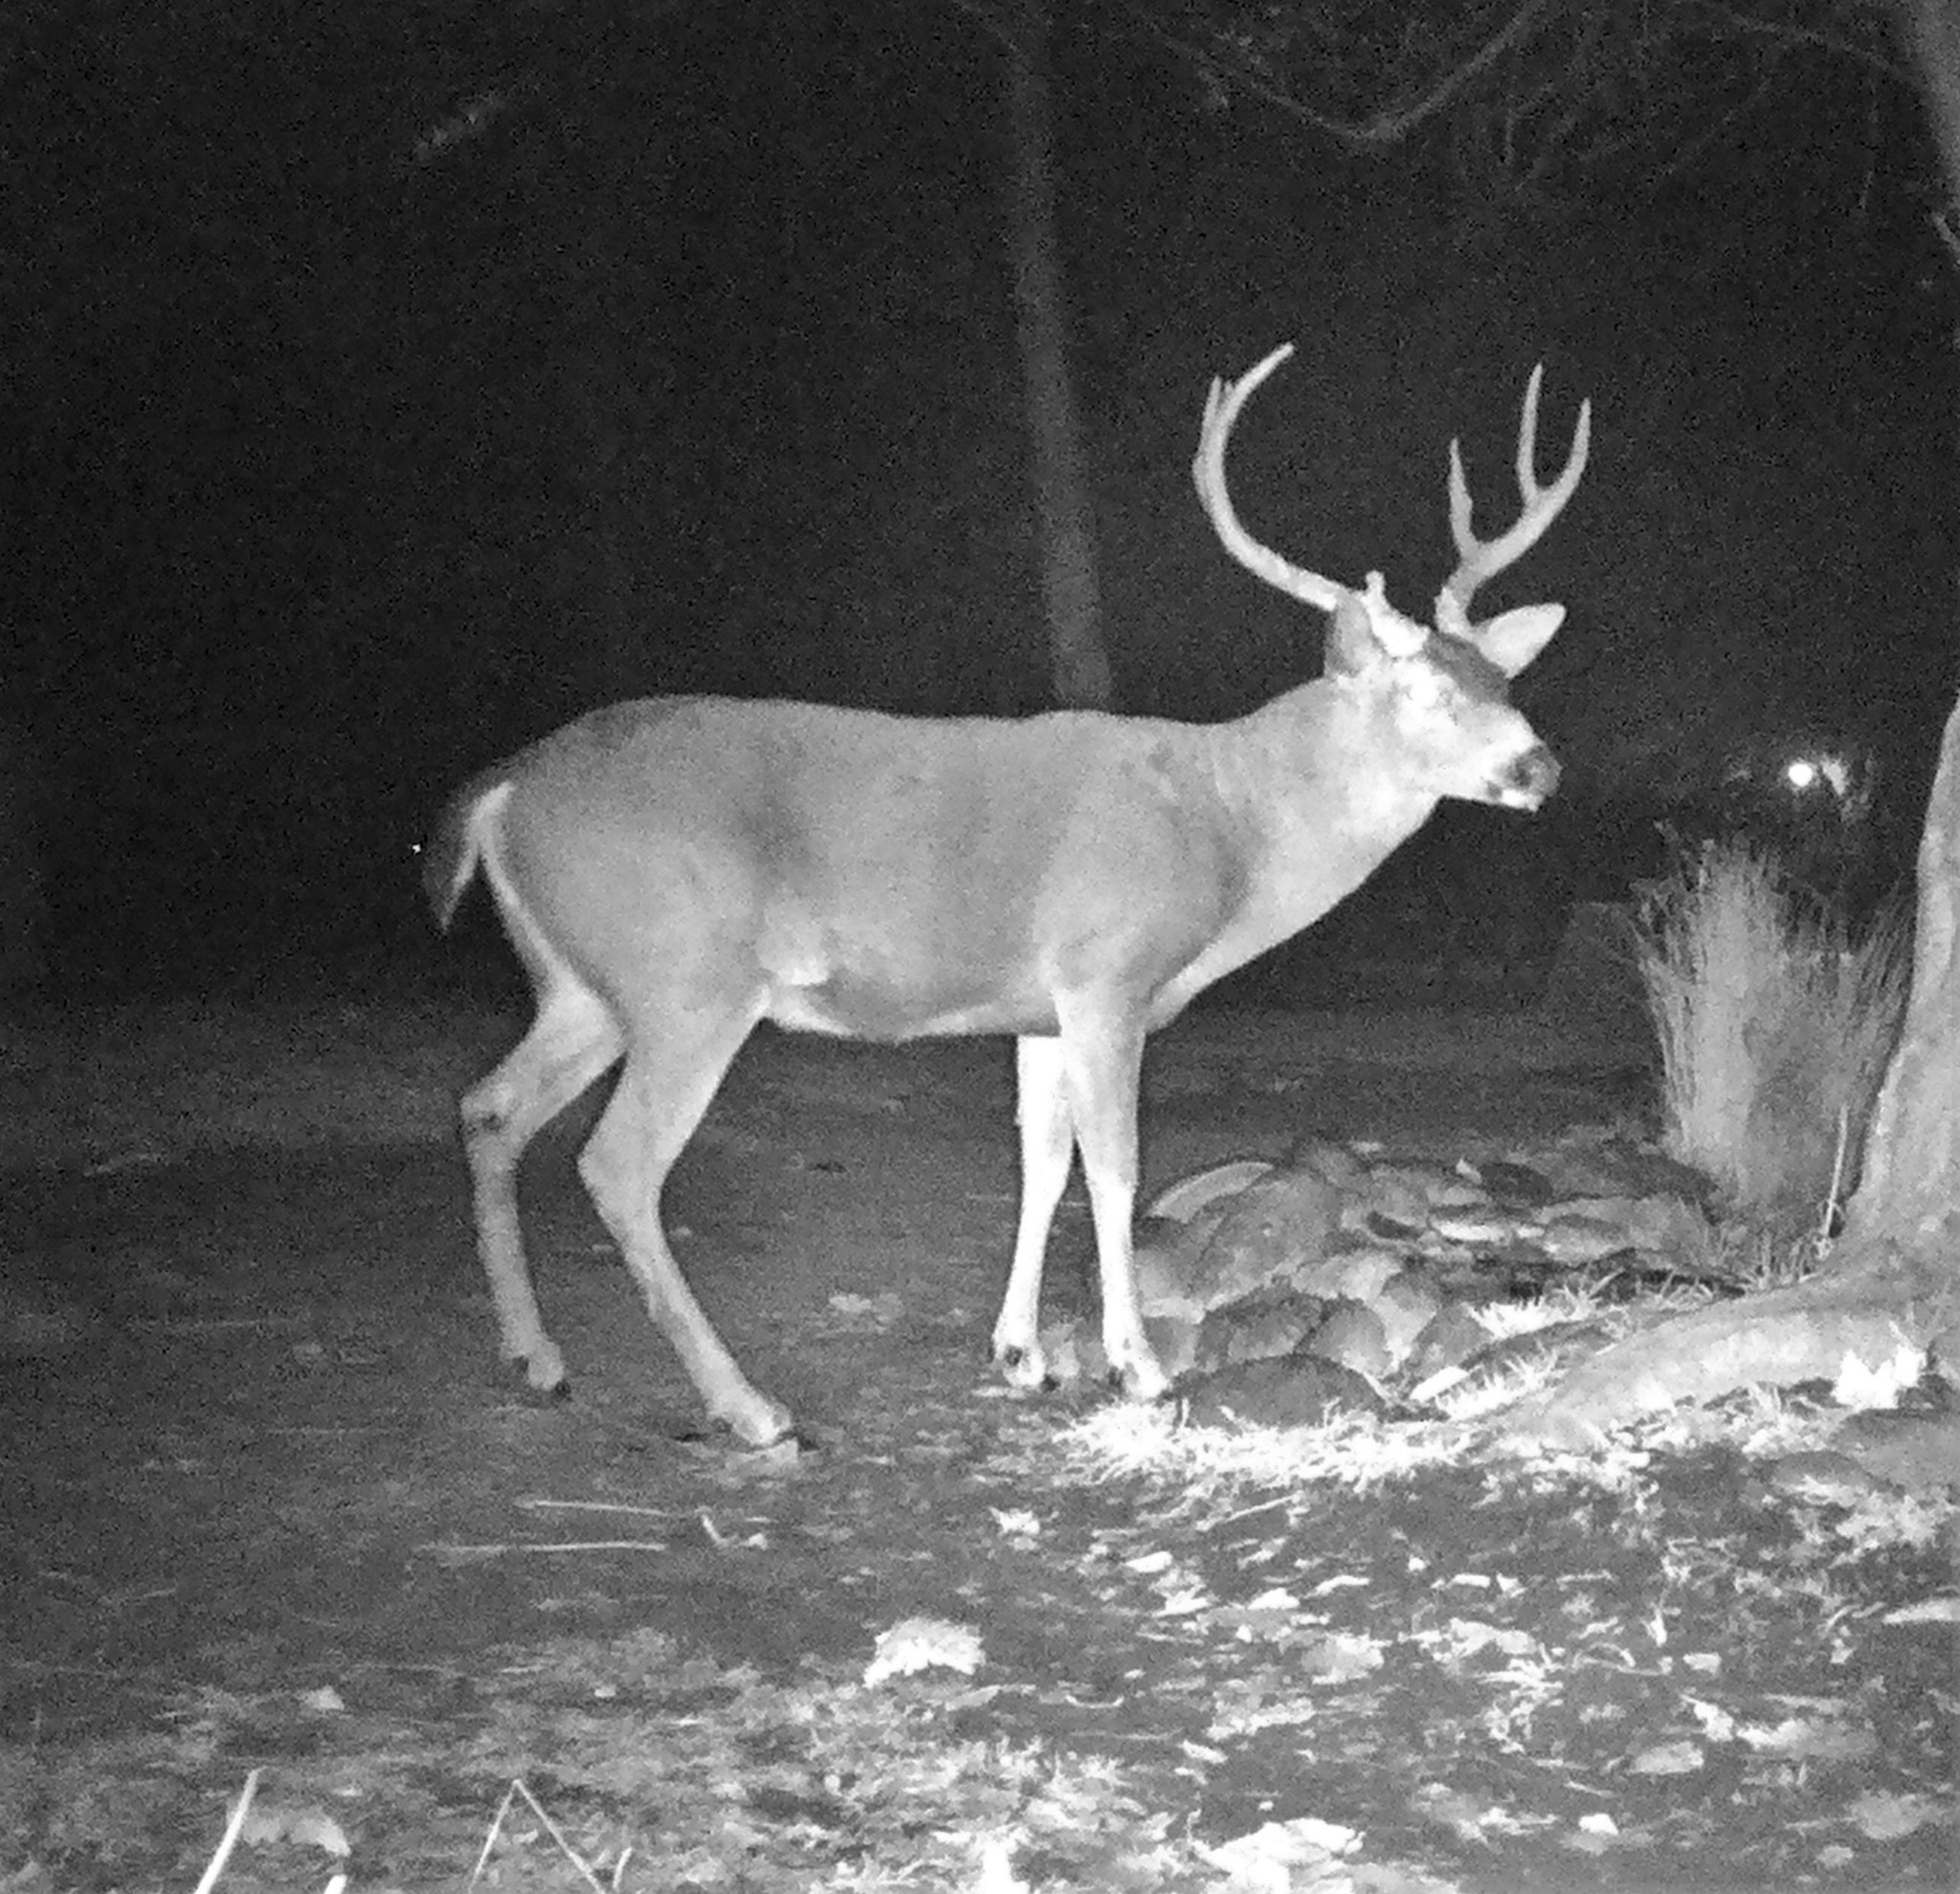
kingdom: Animalia
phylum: Chordata
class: Mammalia
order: Artiodactyla
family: Cervidae
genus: Odocoileus
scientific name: Odocoileus hemionus
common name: Mule deer
